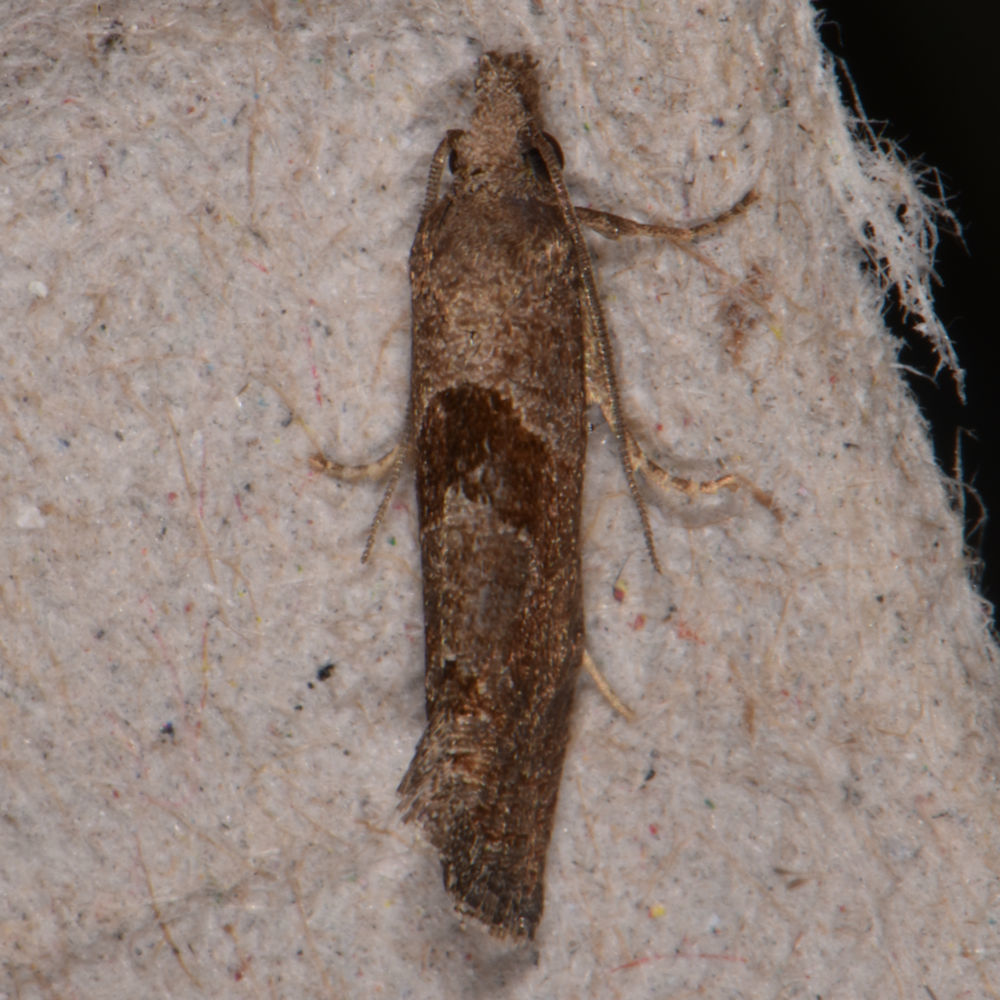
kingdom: Animalia
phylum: Arthropoda
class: Insecta
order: Lepidoptera
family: Tortricidae
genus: Pelochrista
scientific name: Pelochrista similiana
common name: Similar eucosma
